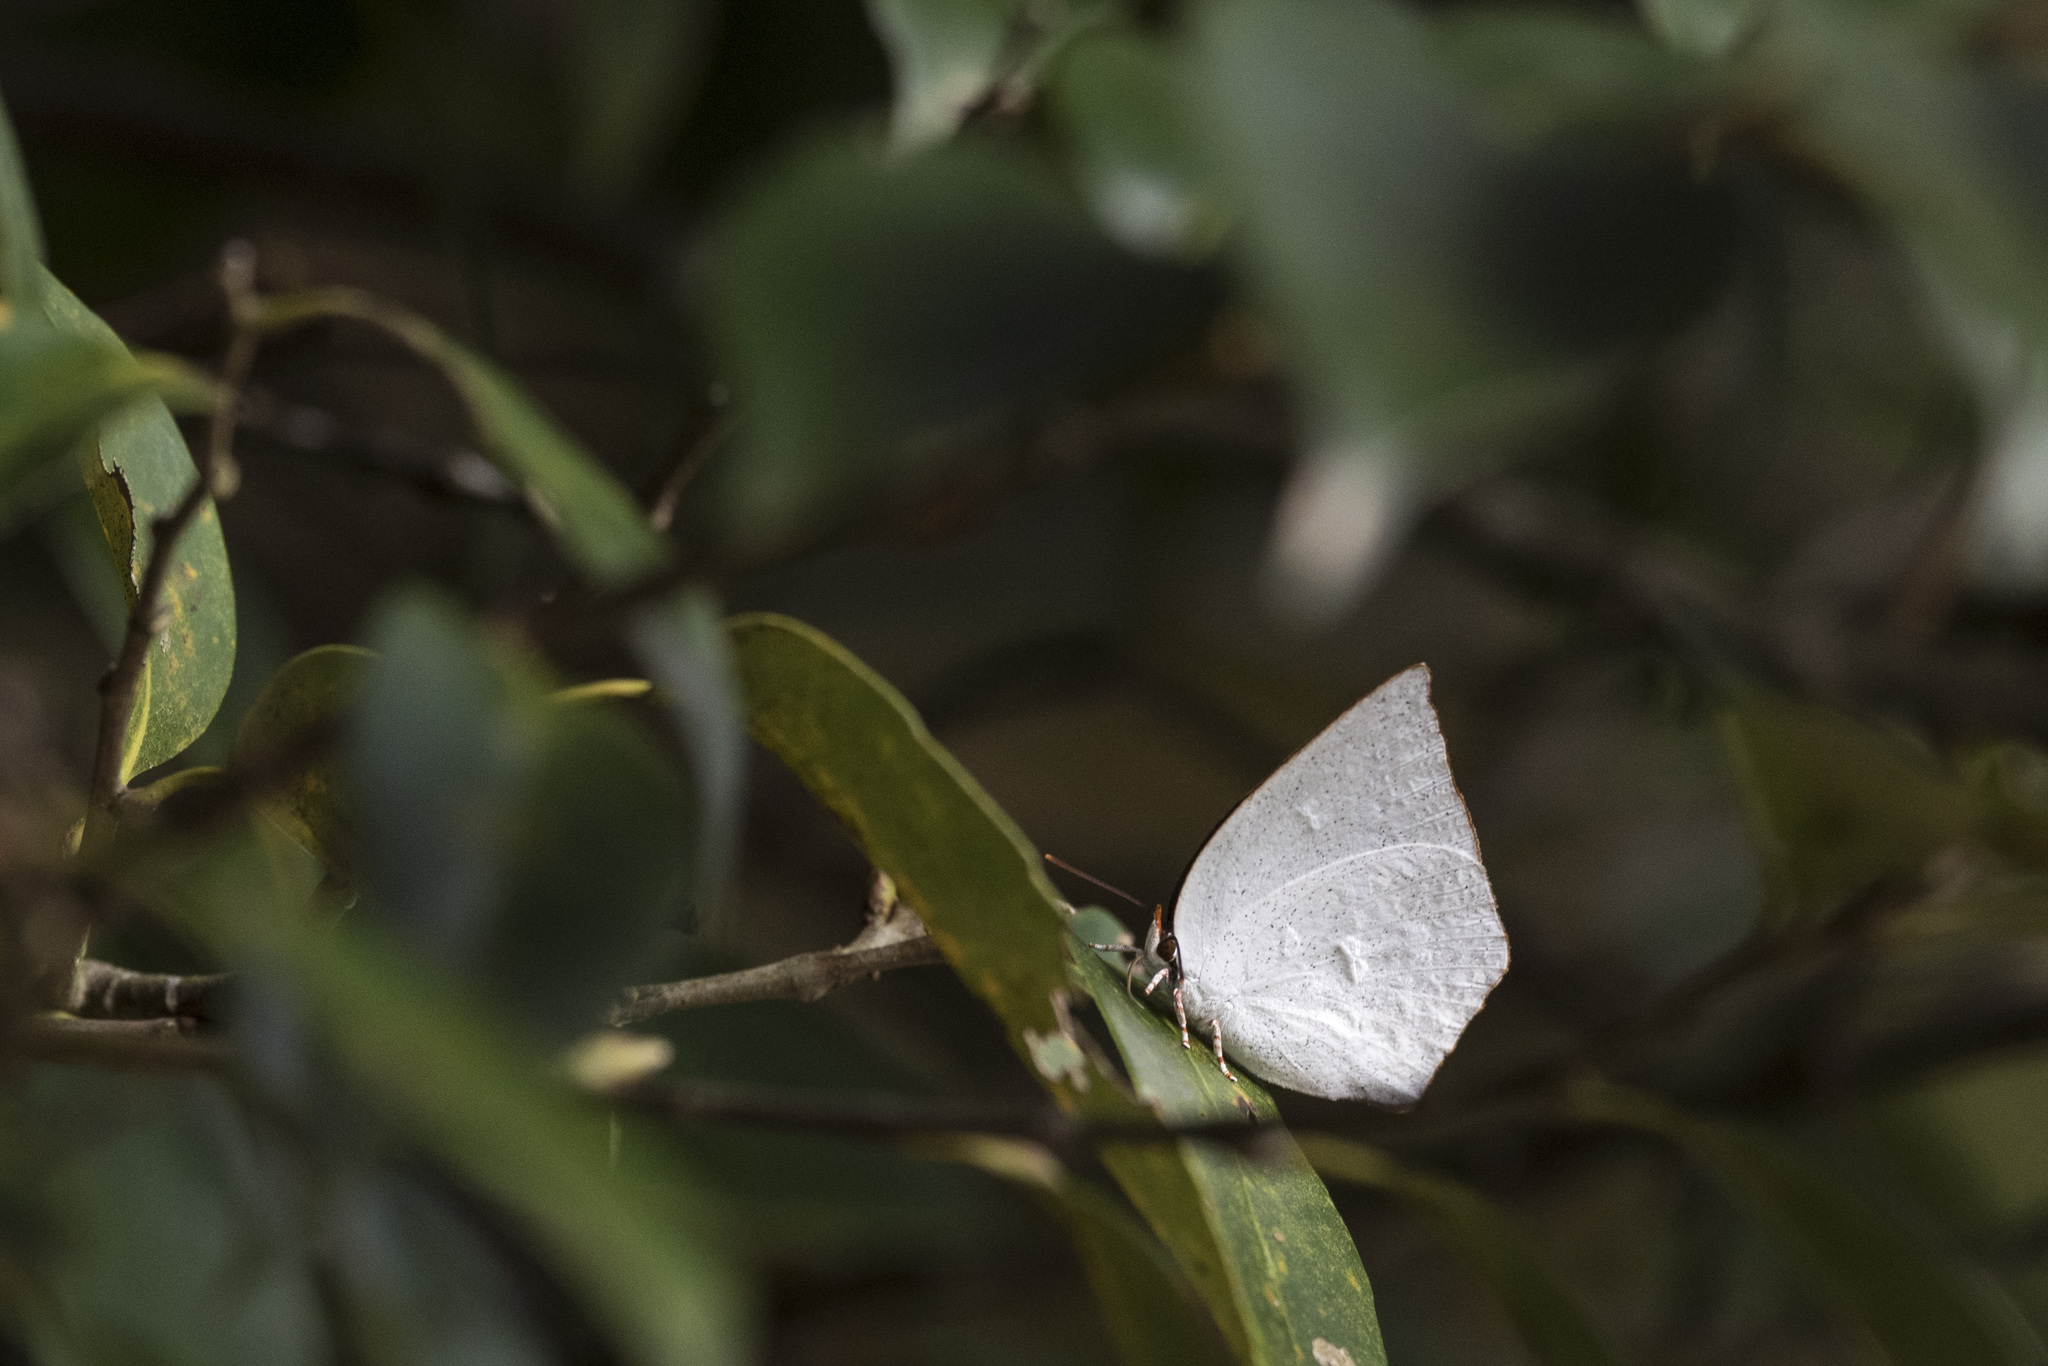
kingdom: Animalia
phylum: Arthropoda
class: Insecta
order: Lepidoptera
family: Lycaenidae
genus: Curetis
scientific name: Curetis acuta
